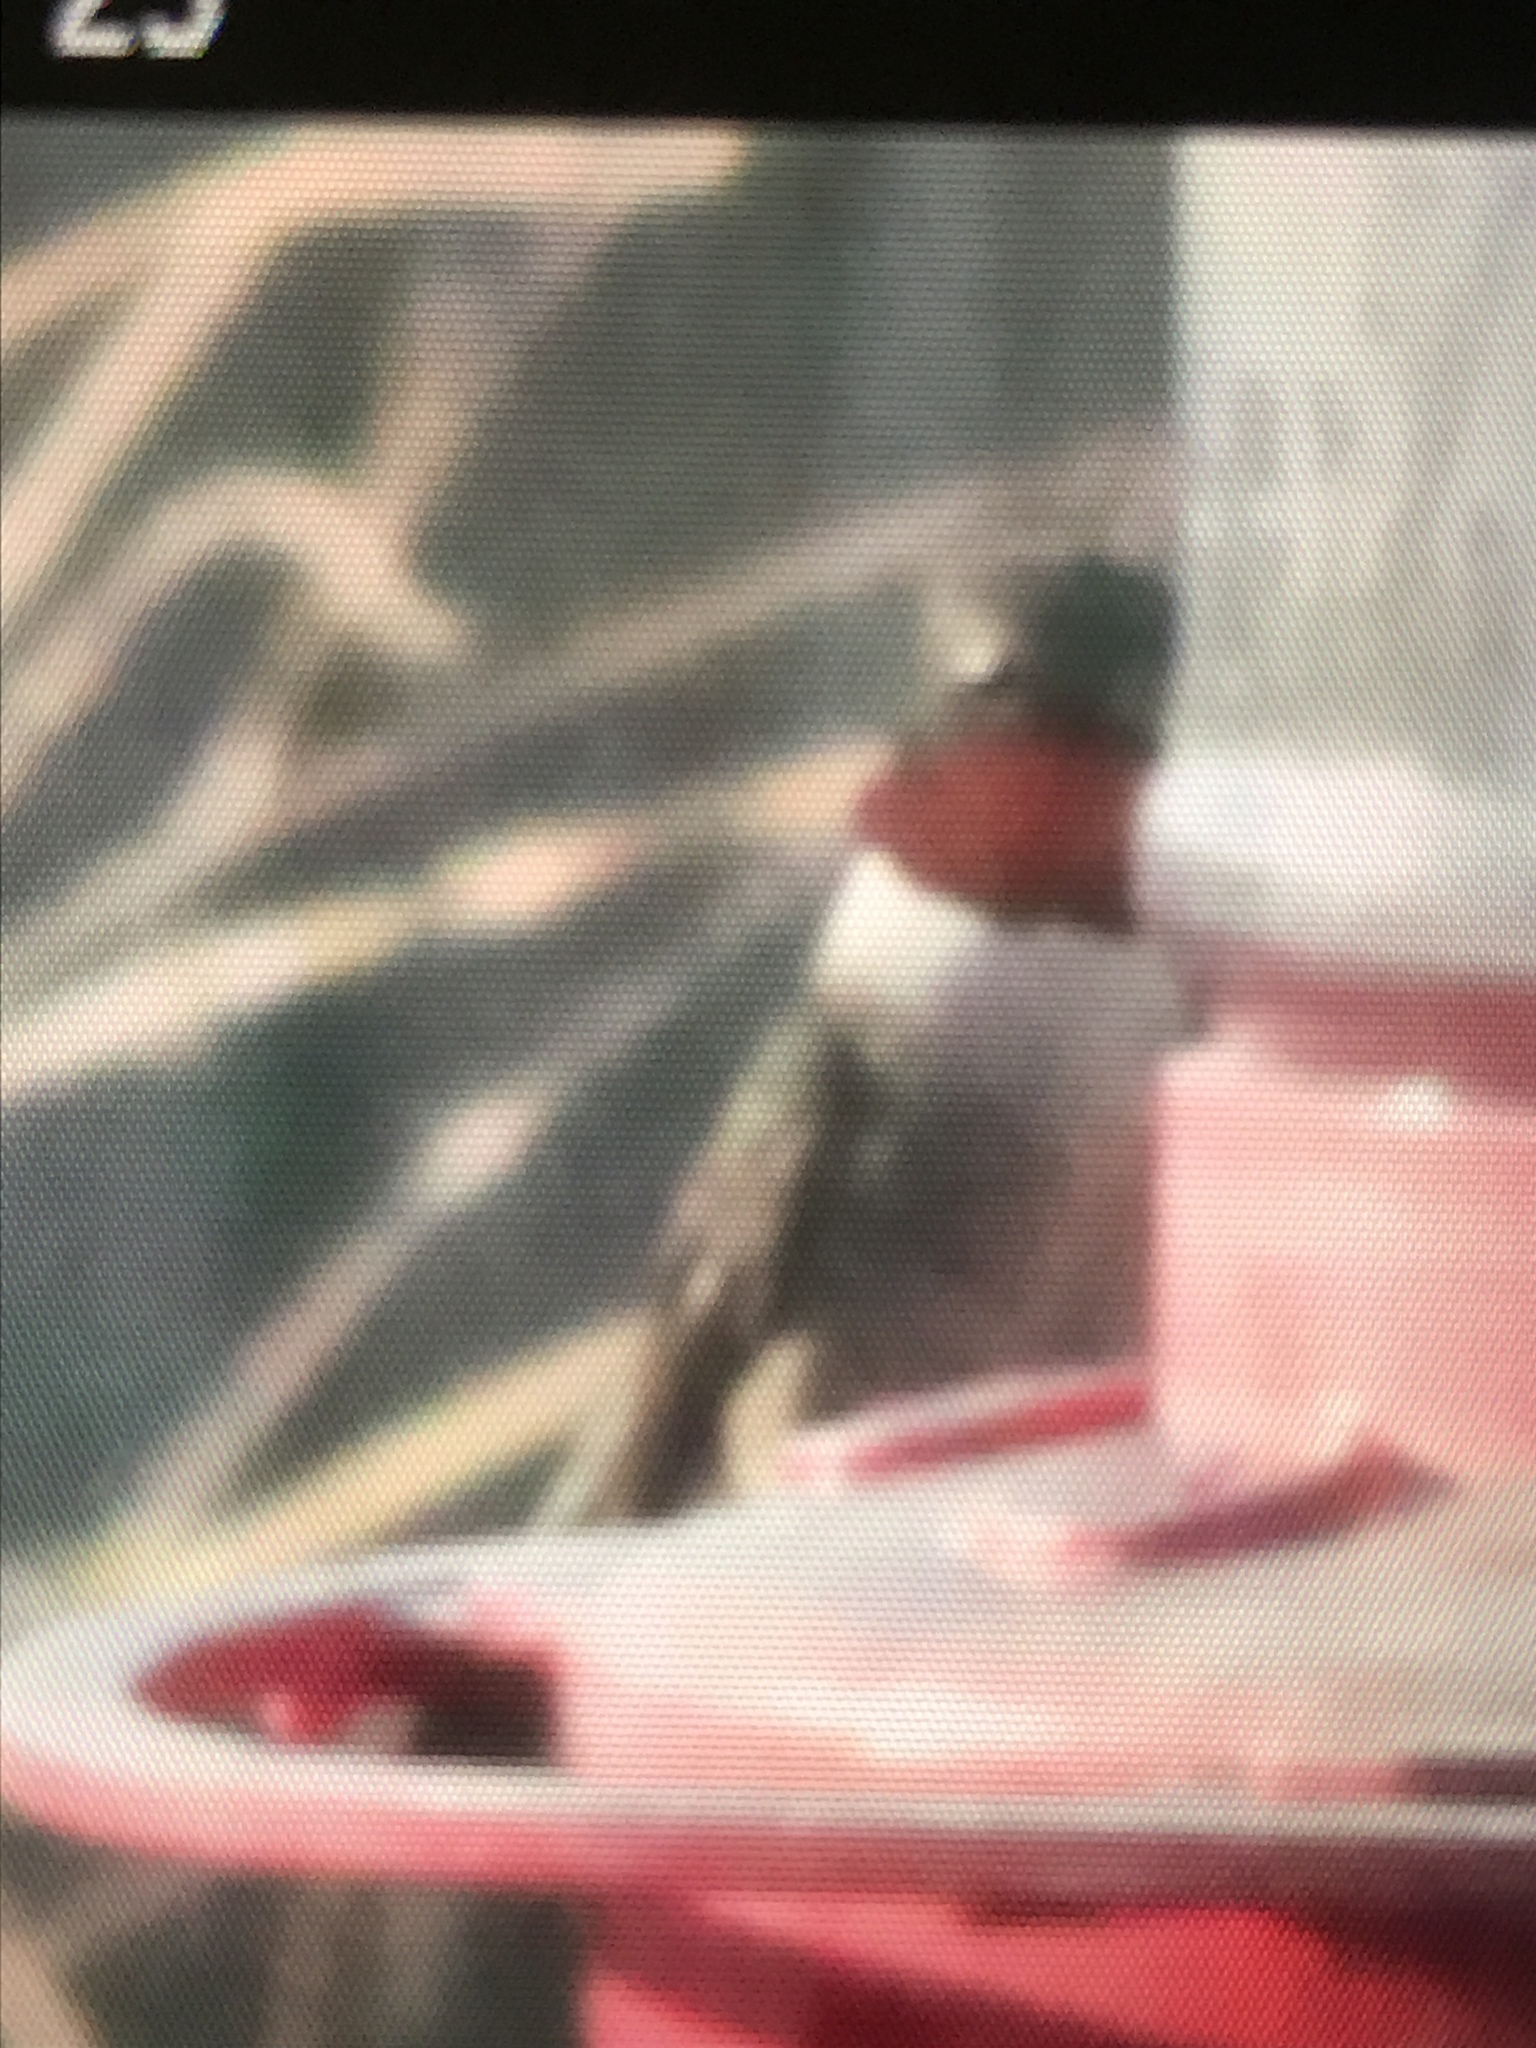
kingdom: Animalia
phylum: Chordata
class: Aves
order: Apodiformes
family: Trochilidae
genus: Archilochus
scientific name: Archilochus colubris
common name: Ruby-throated hummingbird
